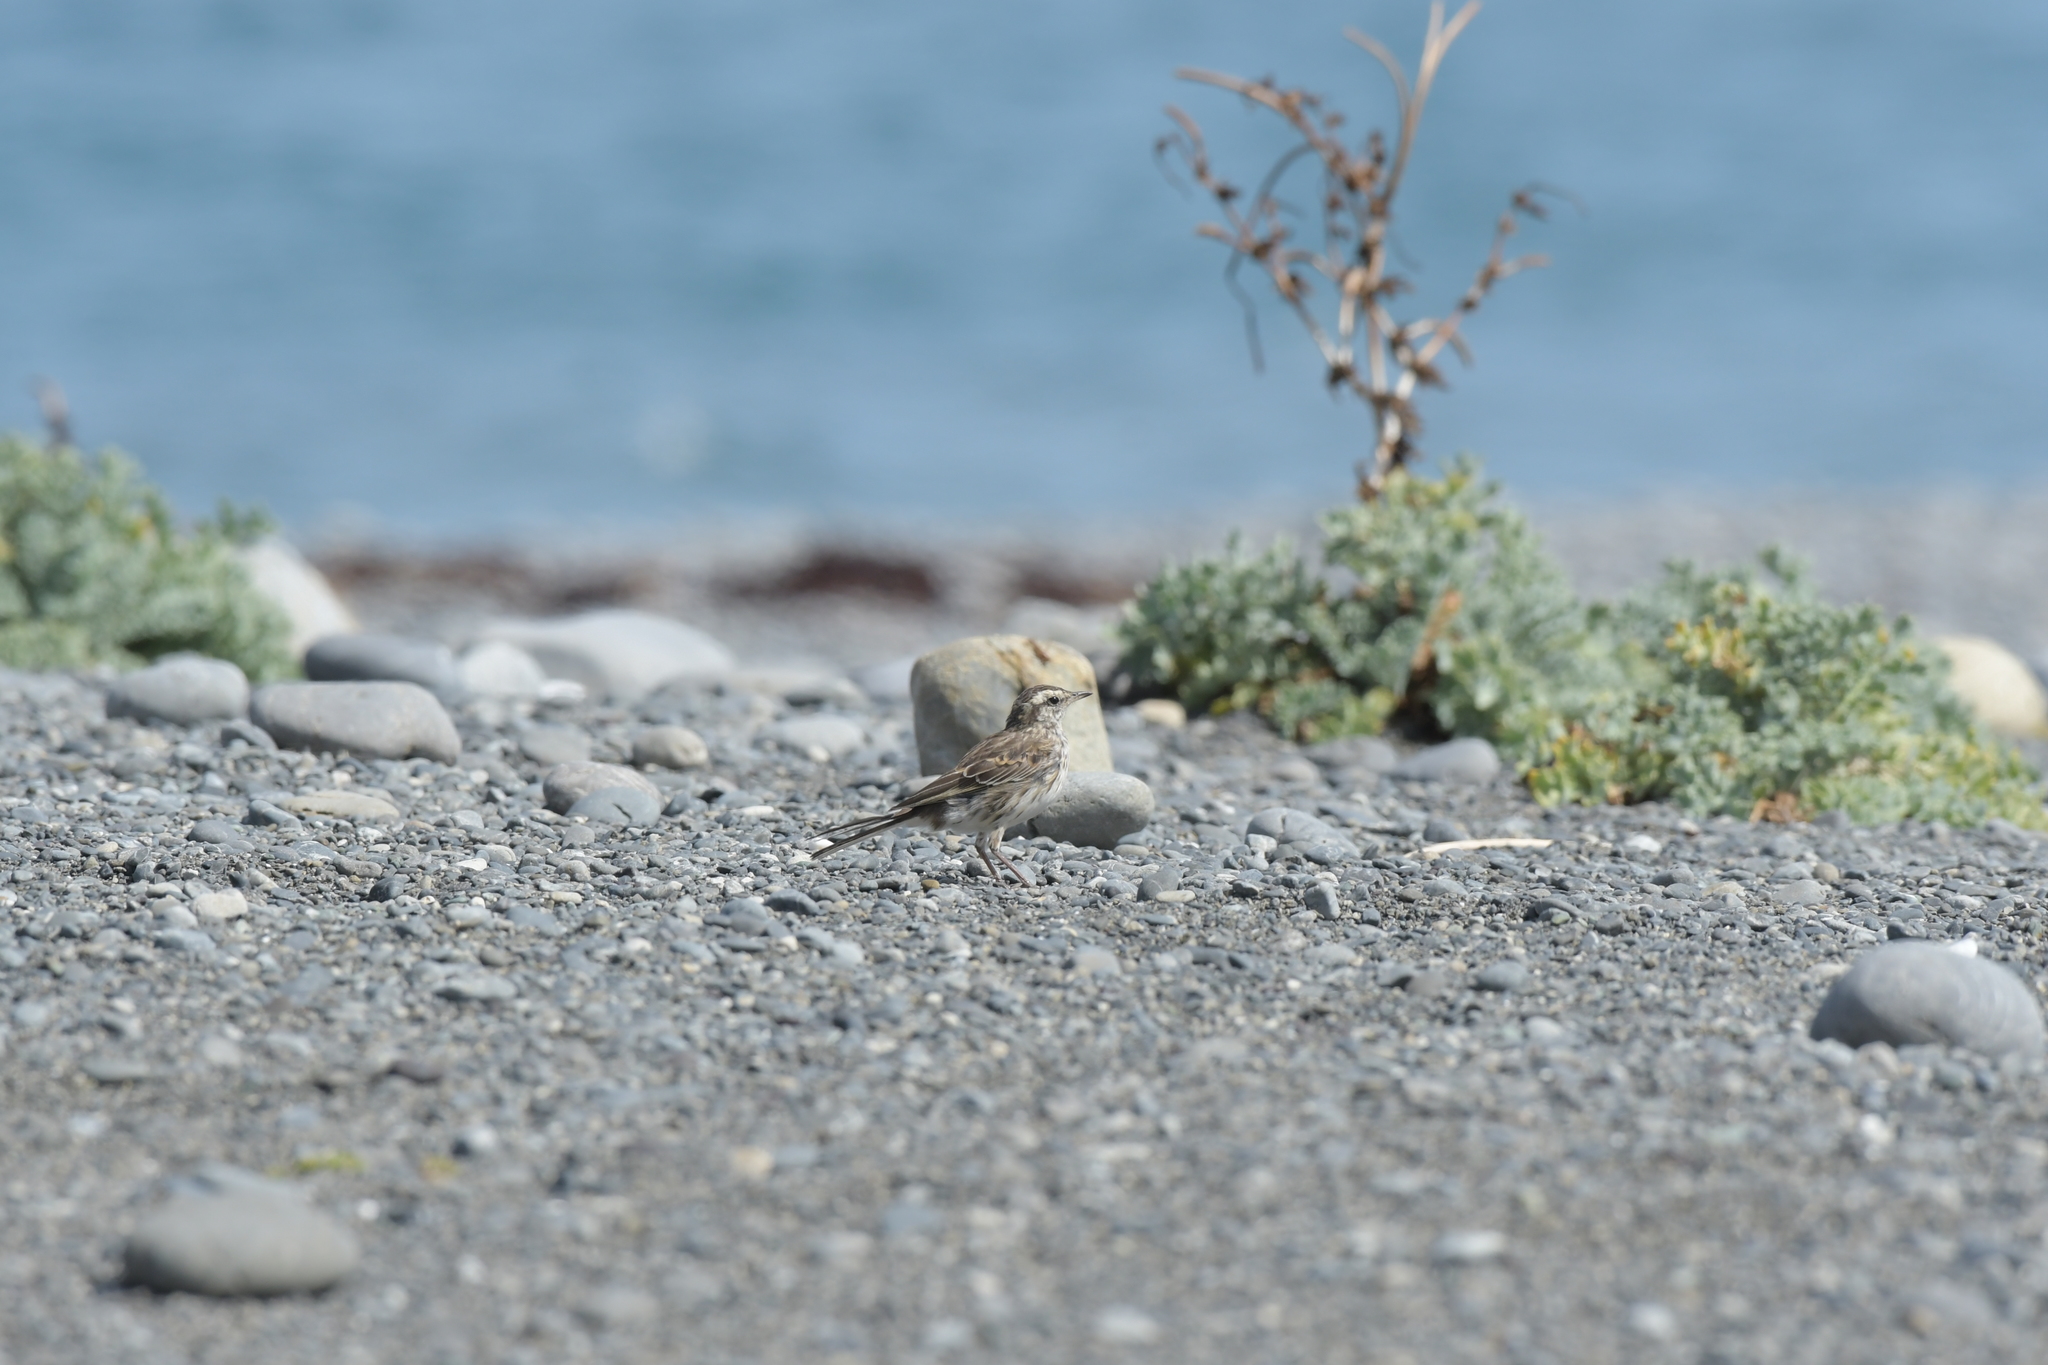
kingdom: Animalia
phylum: Chordata
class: Aves
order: Passeriformes
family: Motacillidae
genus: Anthus
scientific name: Anthus novaeseelandiae
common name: New zealand pipit
